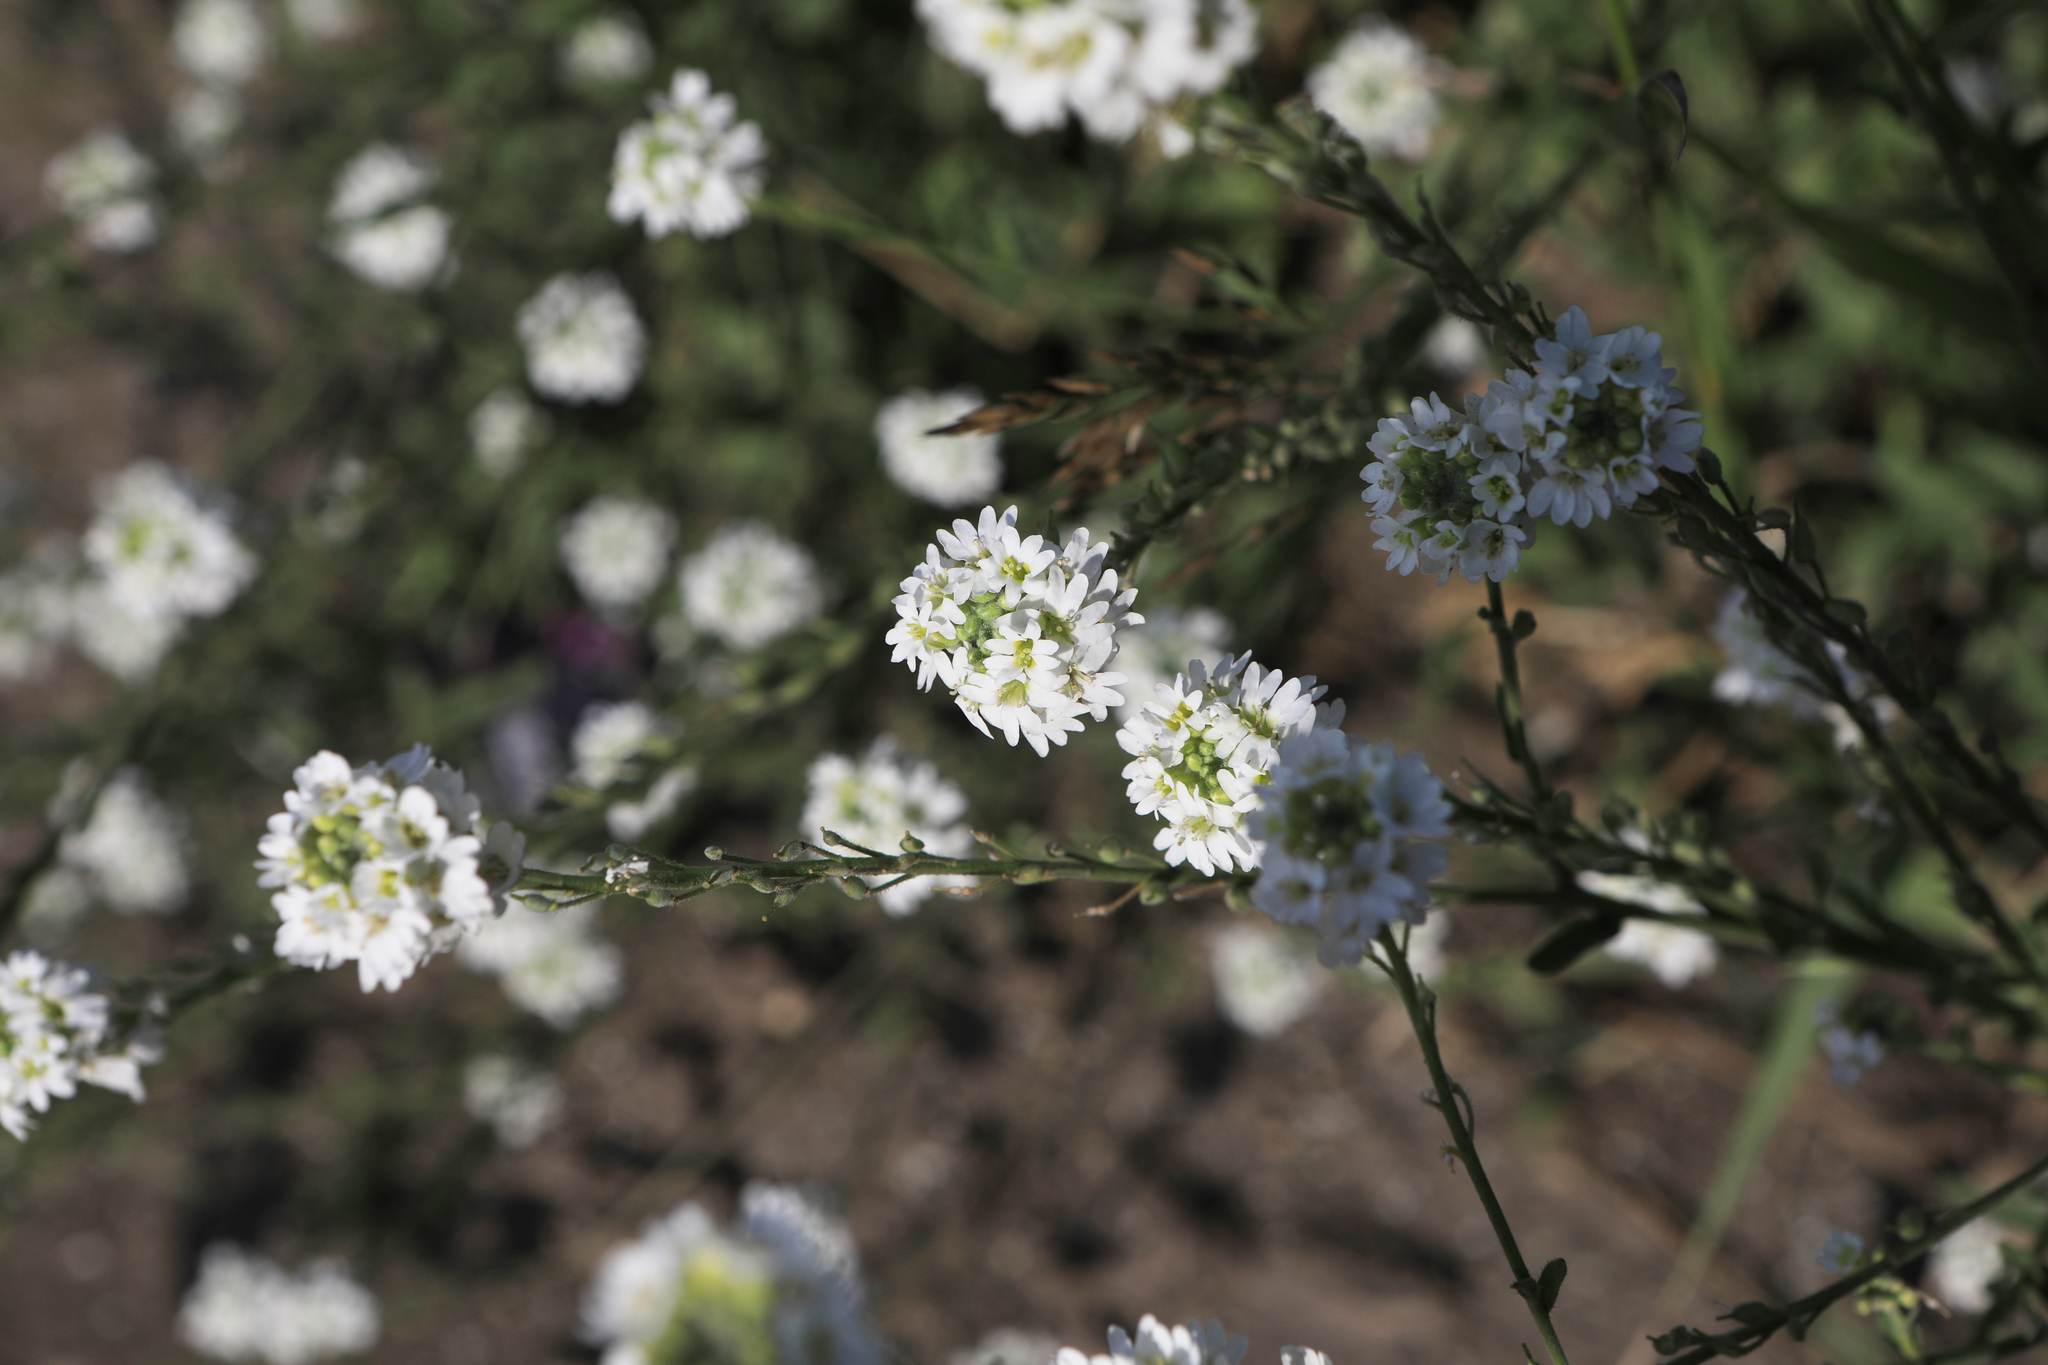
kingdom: Plantae
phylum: Tracheophyta
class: Magnoliopsida
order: Brassicales
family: Brassicaceae
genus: Berteroa
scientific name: Berteroa incana
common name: Hoary alison
